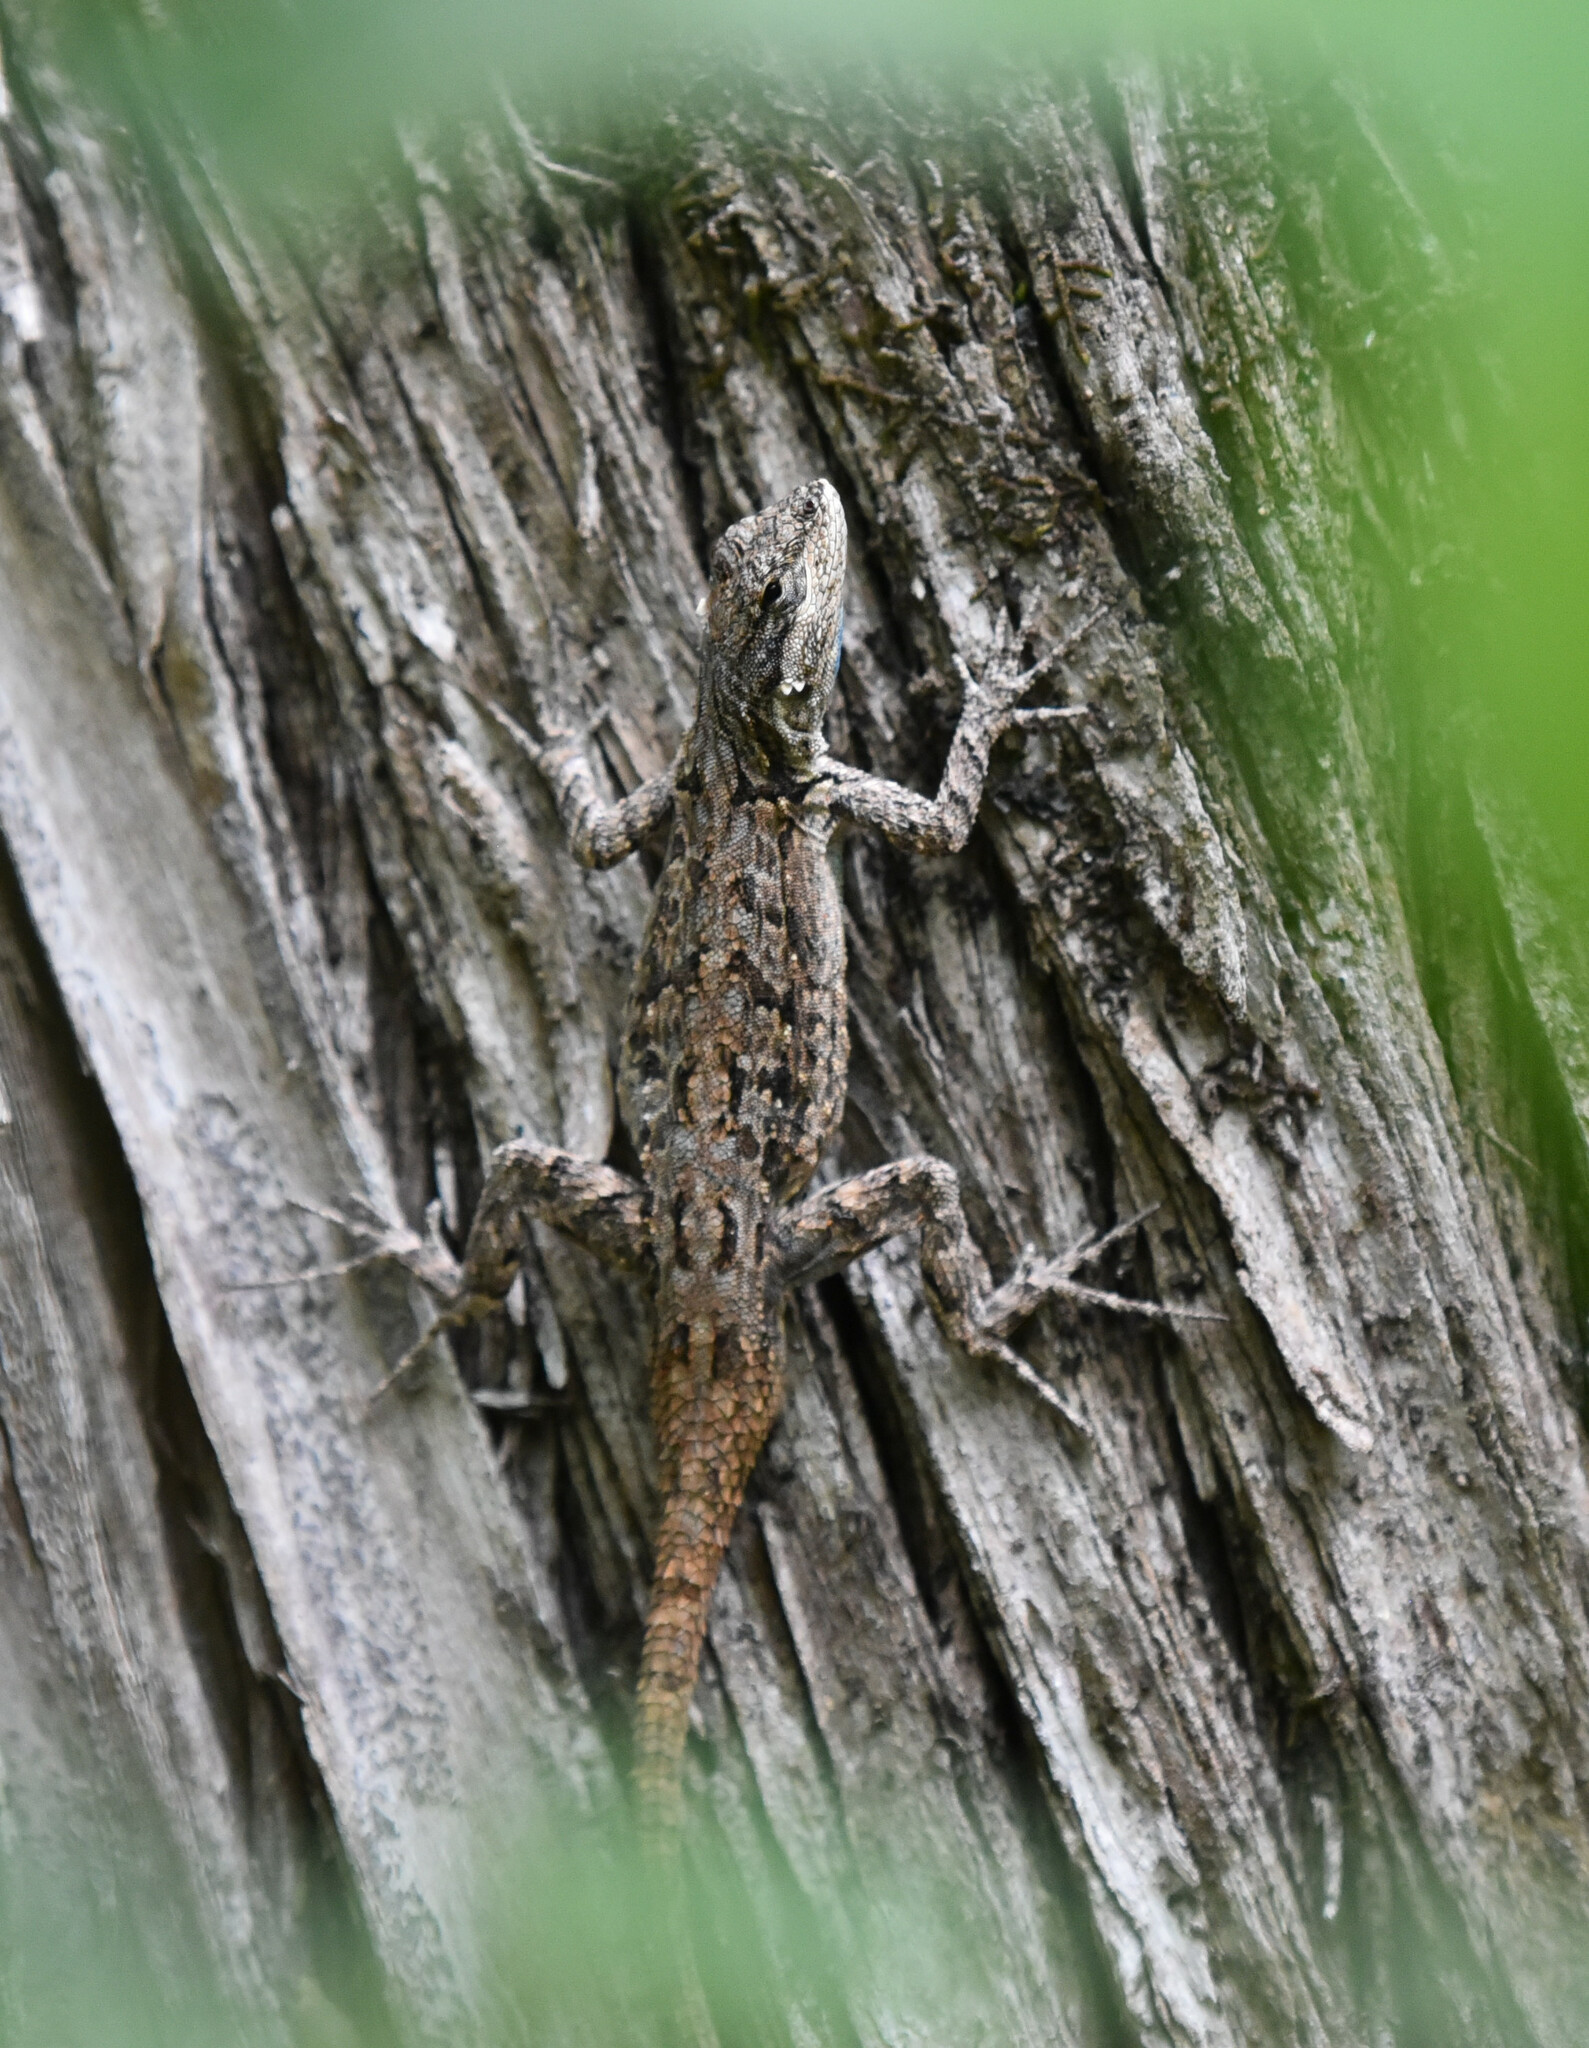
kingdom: Animalia
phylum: Chordata
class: Squamata
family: Phrynosomatidae
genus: Urosaurus
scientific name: Urosaurus ornatus
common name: Ornate tree lizard
